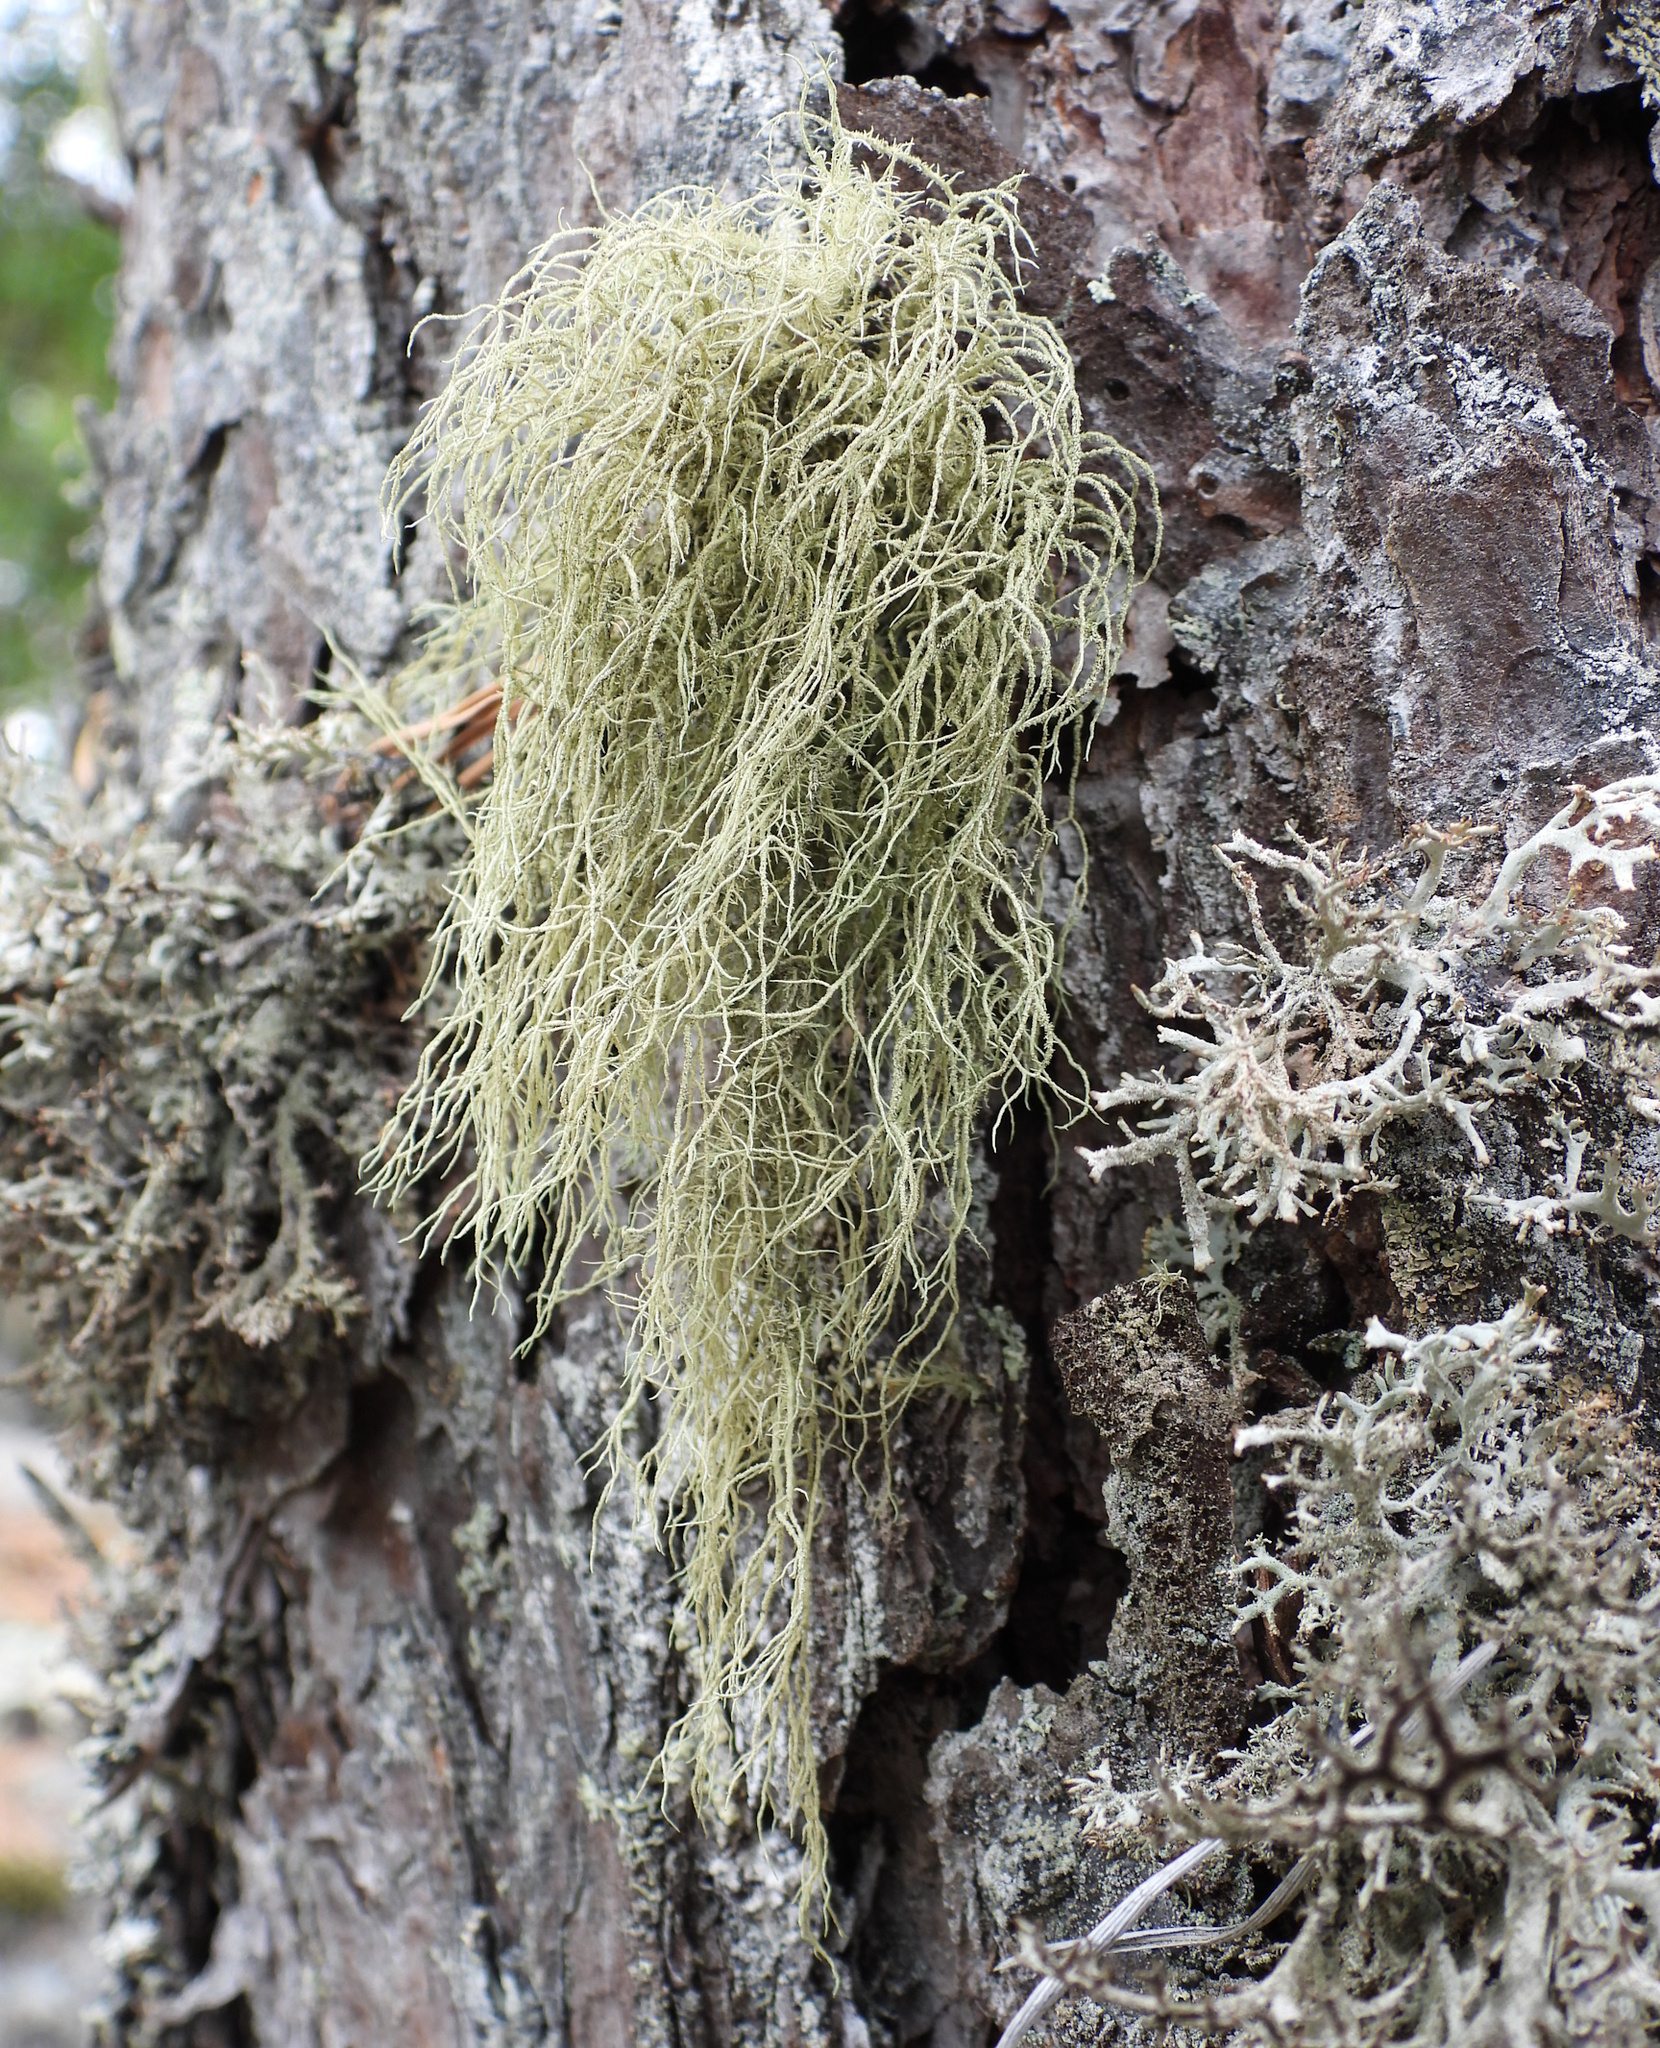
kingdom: Fungi
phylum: Ascomycota
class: Lecanoromycetes
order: Lecanorales
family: Parmeliaceae
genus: Usnea
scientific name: Usnea hirta
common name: Bristly beard lichen
